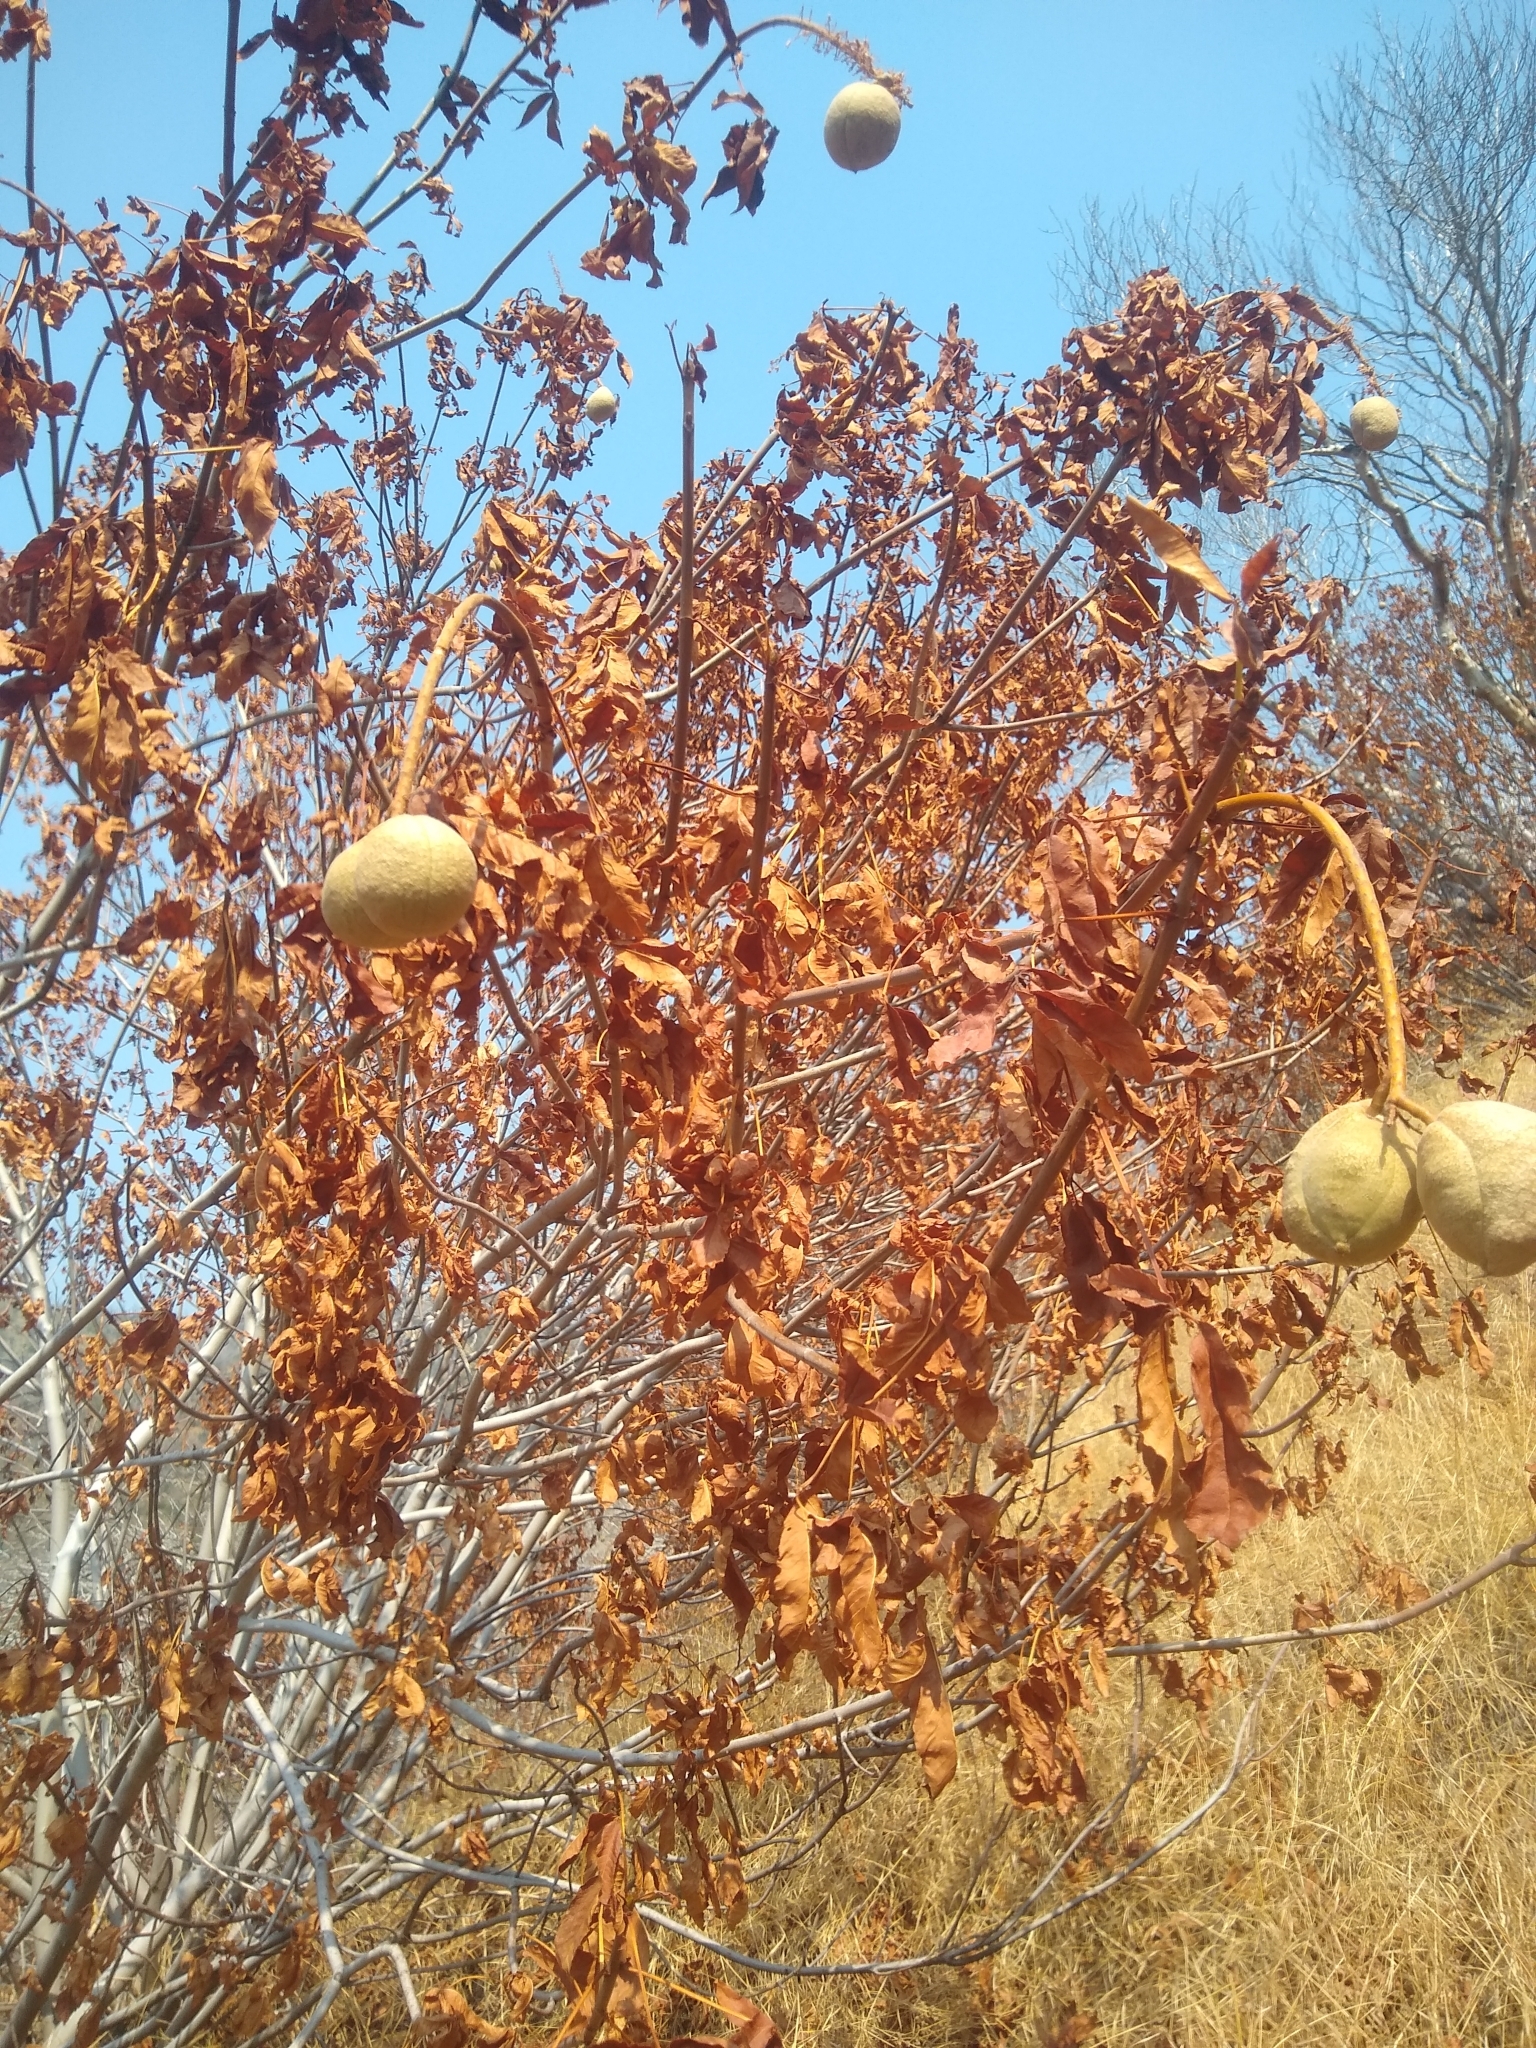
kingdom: Plantae
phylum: Tracheophyta
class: Magnoliopsida
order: Sapindales
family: Sapindaceae
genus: Aesculus
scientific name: Aesculus californica
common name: California buckeye
